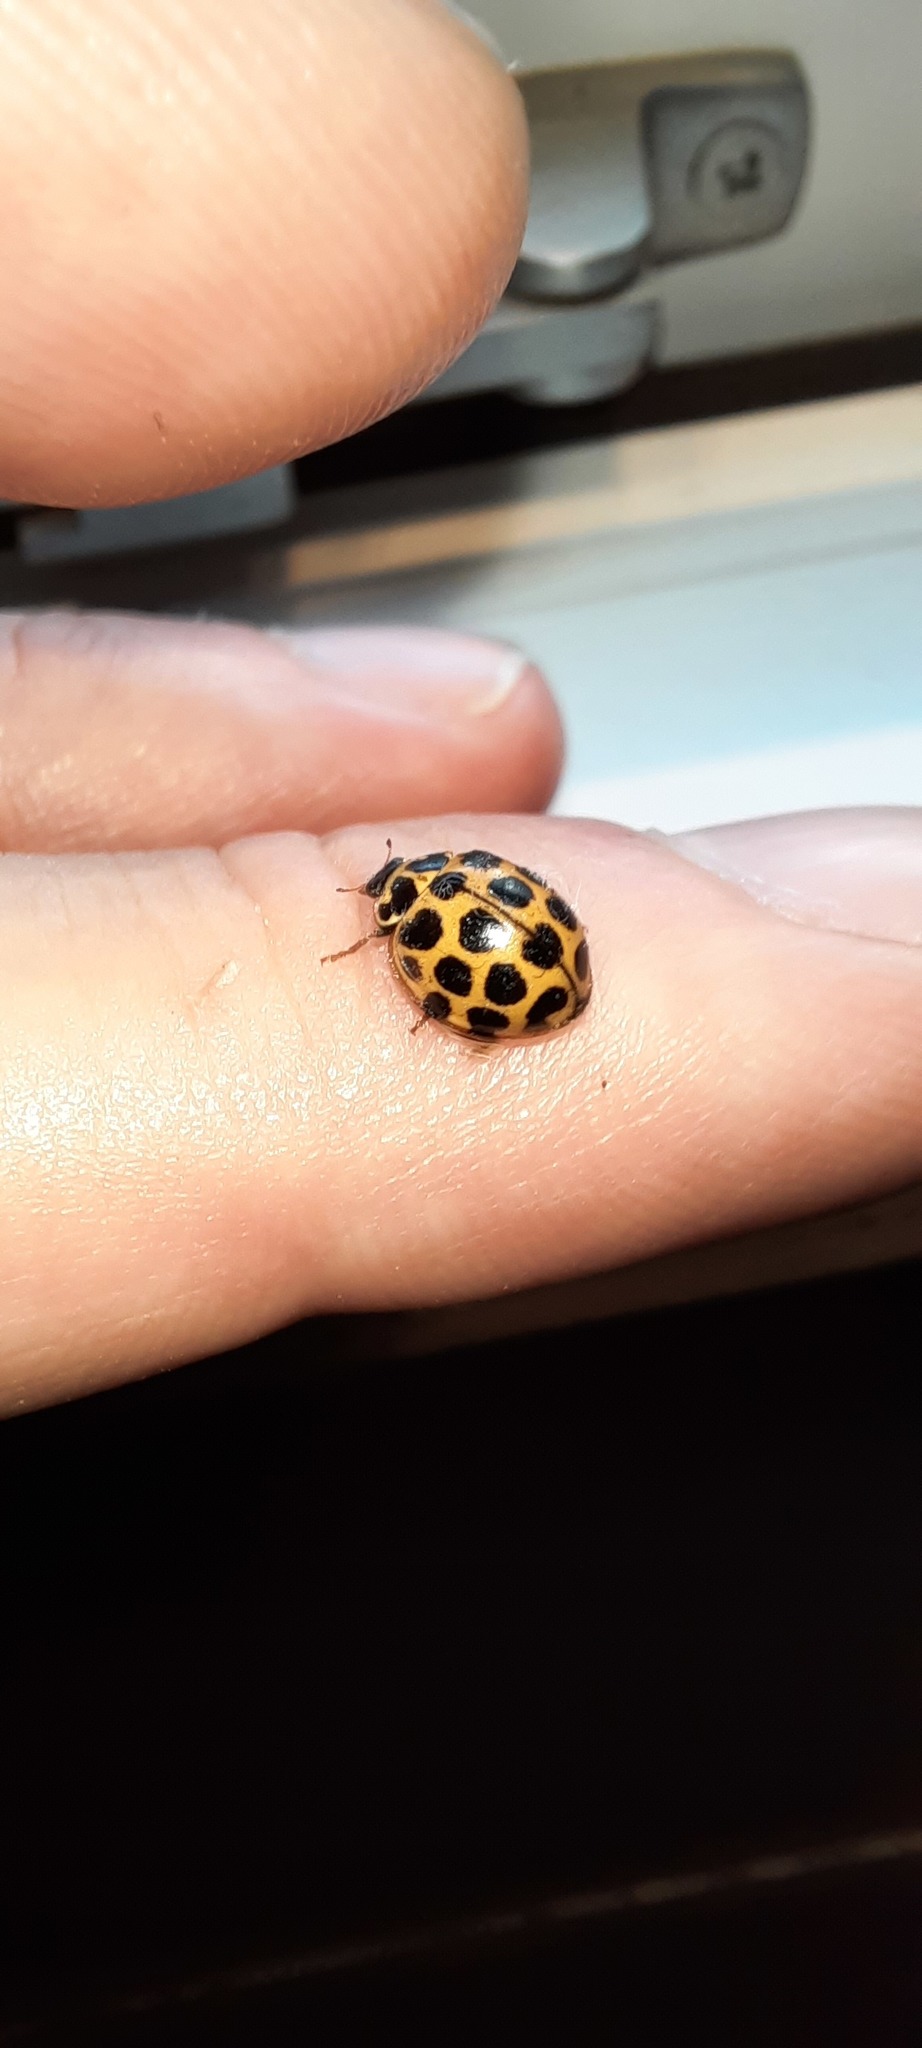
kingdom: Animalia
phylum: Arthropoda
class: Insecta
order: Coleoptera
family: Coccinellidae
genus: Harmonia
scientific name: Harmonia conformis
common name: Common spotted ladybird beetle
